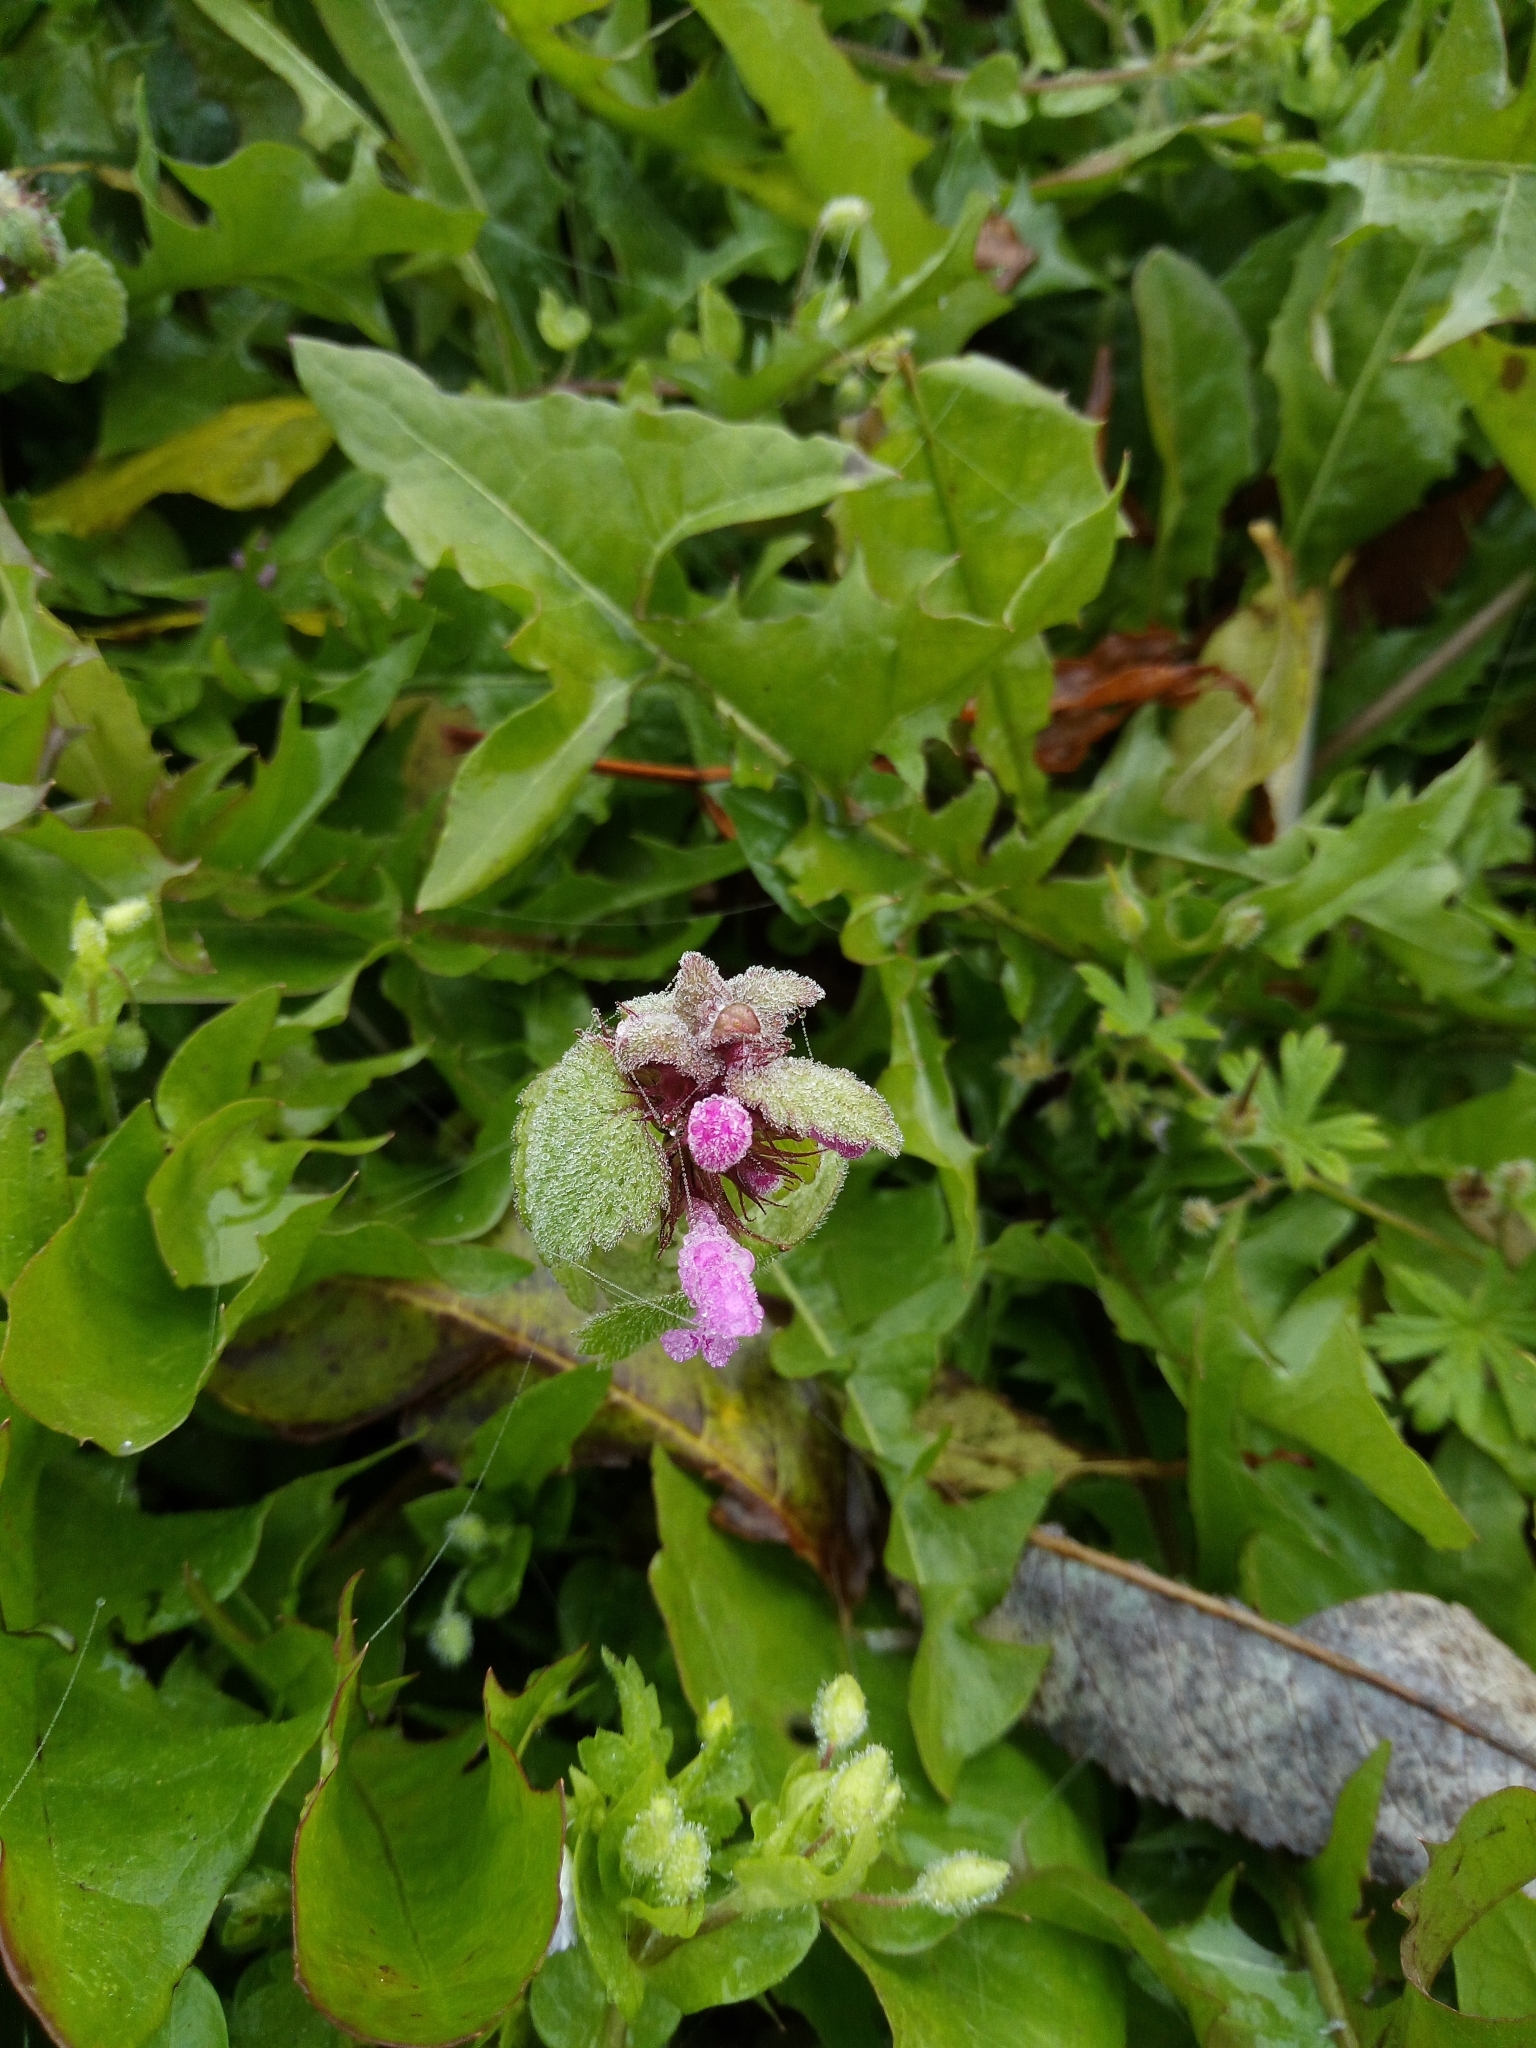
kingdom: Plantae
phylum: Tracheophyta
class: Magnoliopsida
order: Lamiales
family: Lamiaceae
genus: Lamium
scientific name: Lamium purpureum
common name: Red dead-nettle
